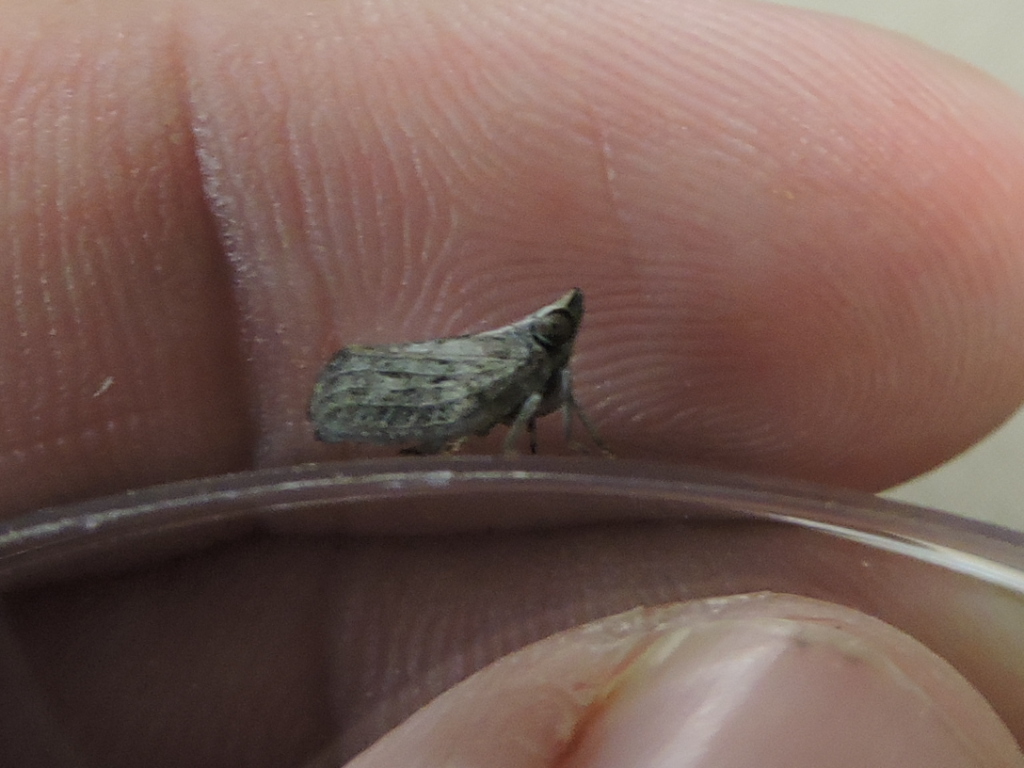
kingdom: Animalia
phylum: Arthropoda
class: Insecta
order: Hemiptera
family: Issidae
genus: Fowlerium
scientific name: Fowlerium acutum
